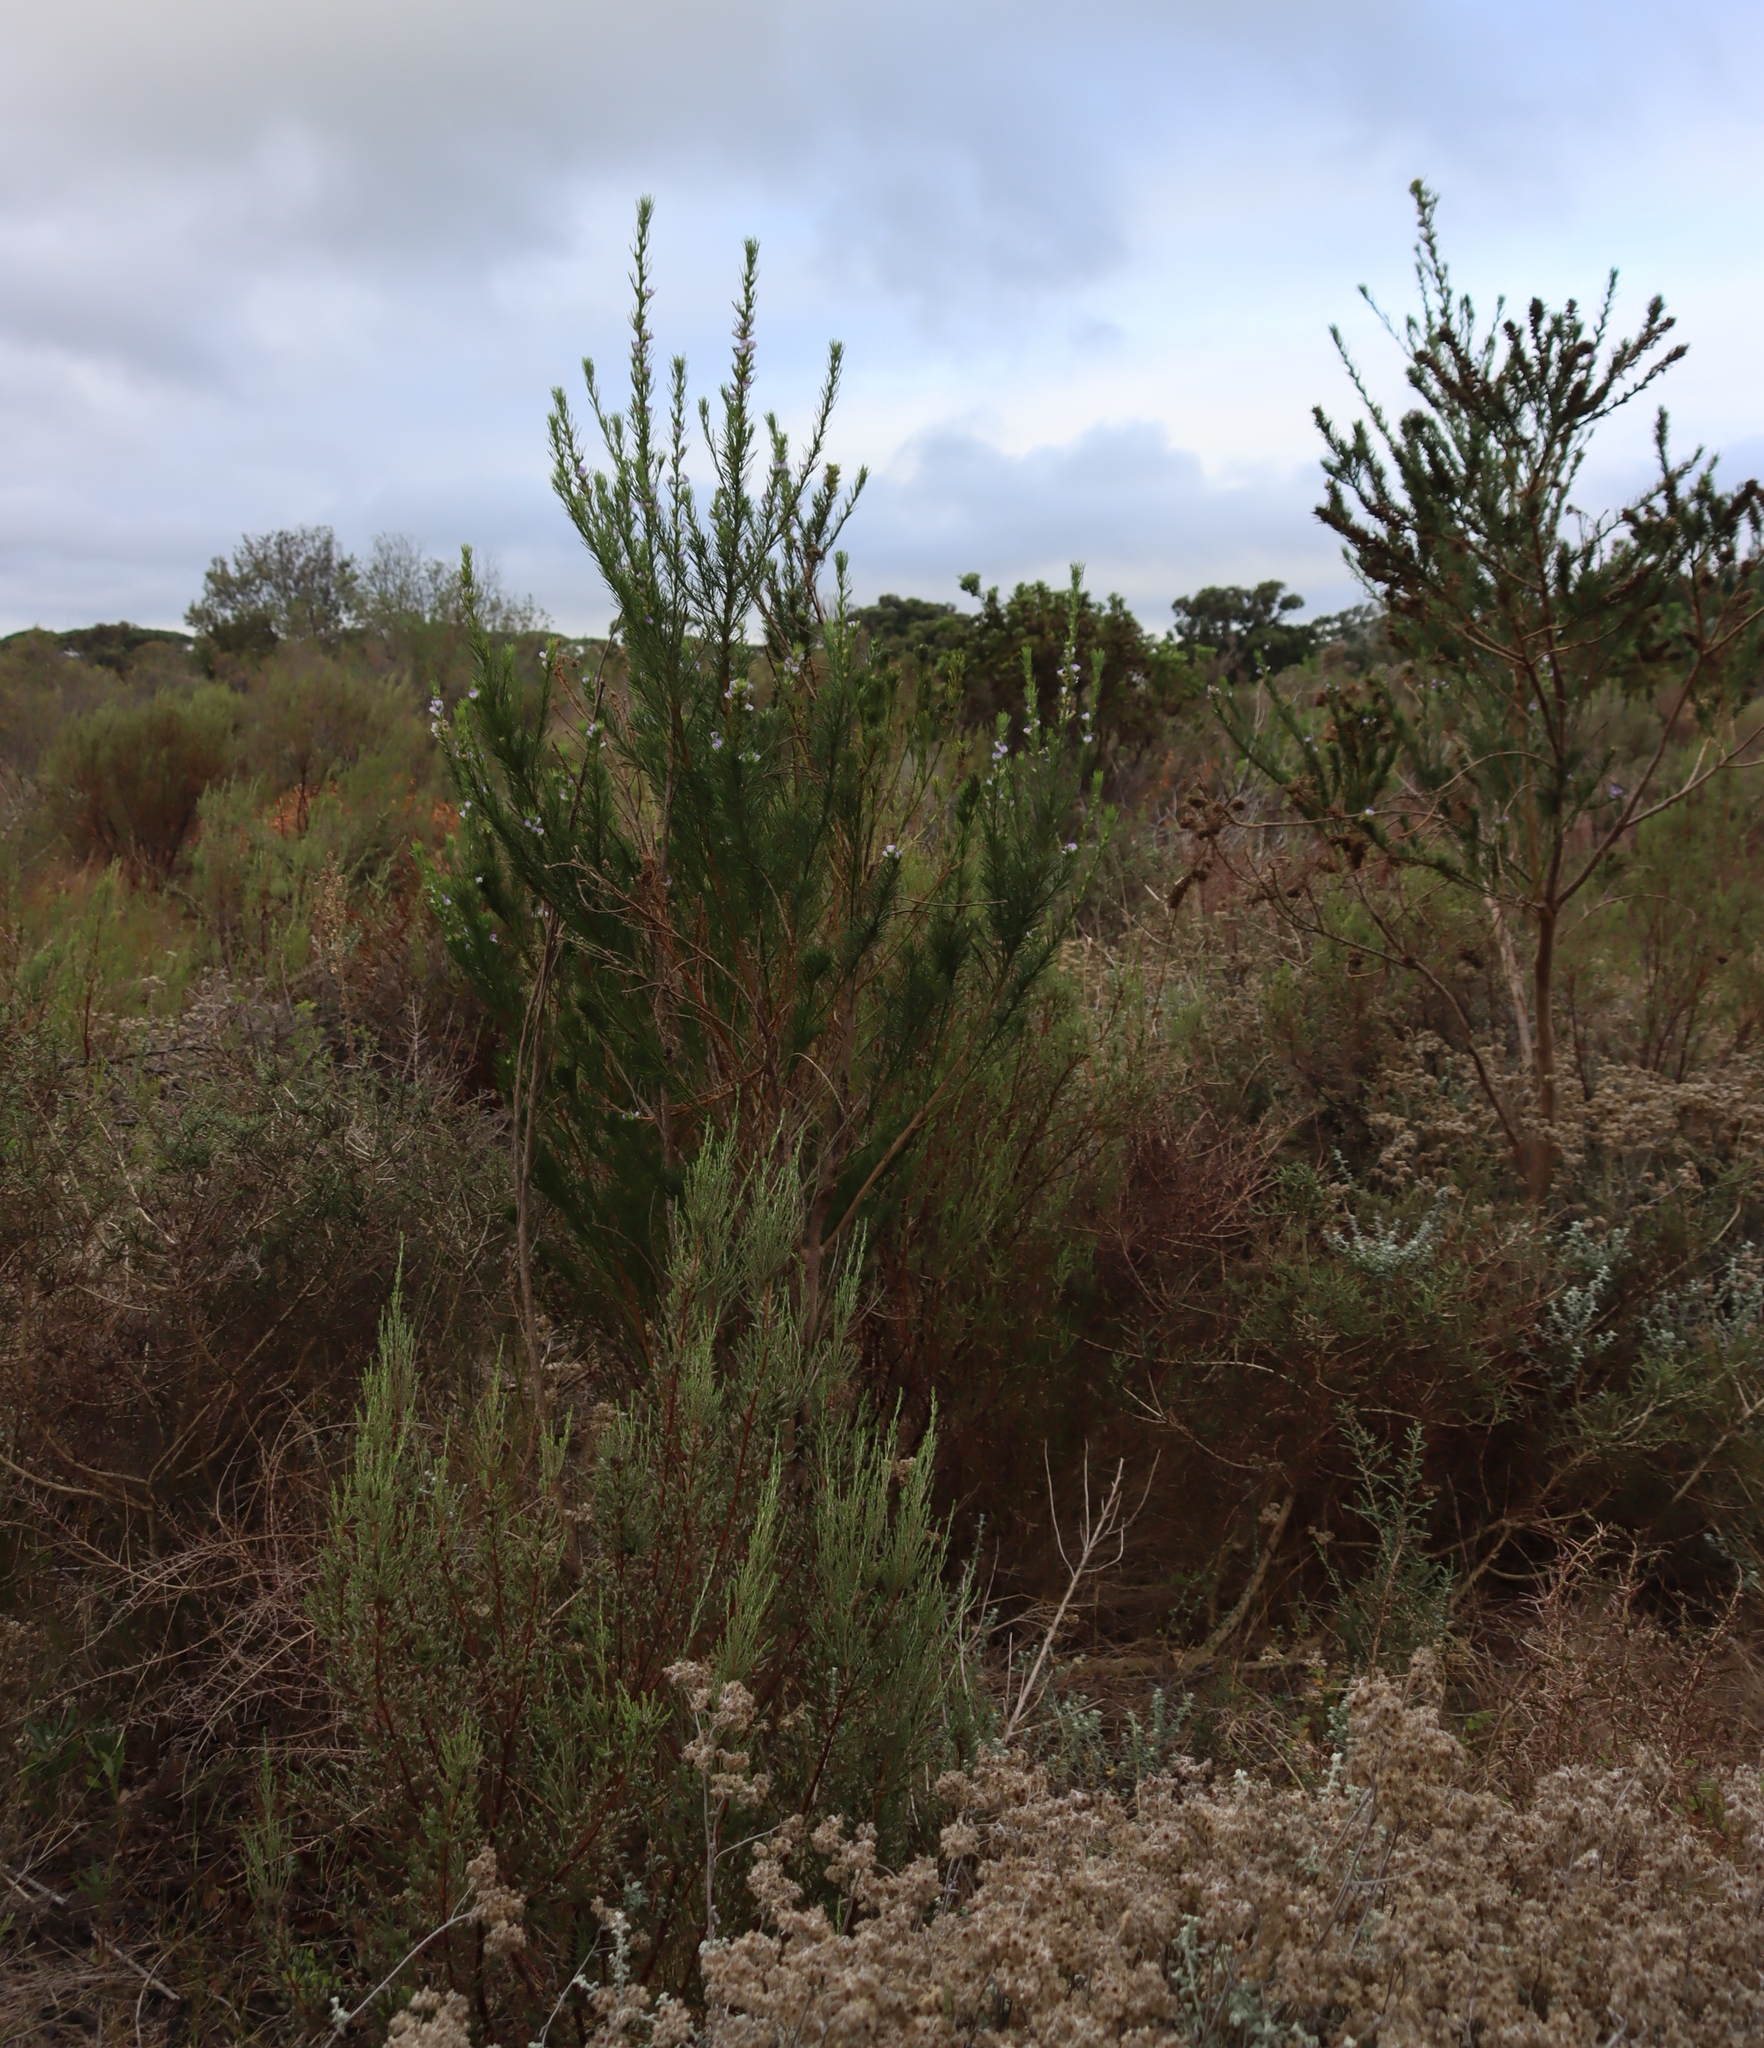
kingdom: Plantae
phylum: Tracheophyta
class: Magnoliopsida
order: Fabales
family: Fabaceae
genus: Psoralea
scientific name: Psoralea pinnata
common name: African scurfpea
